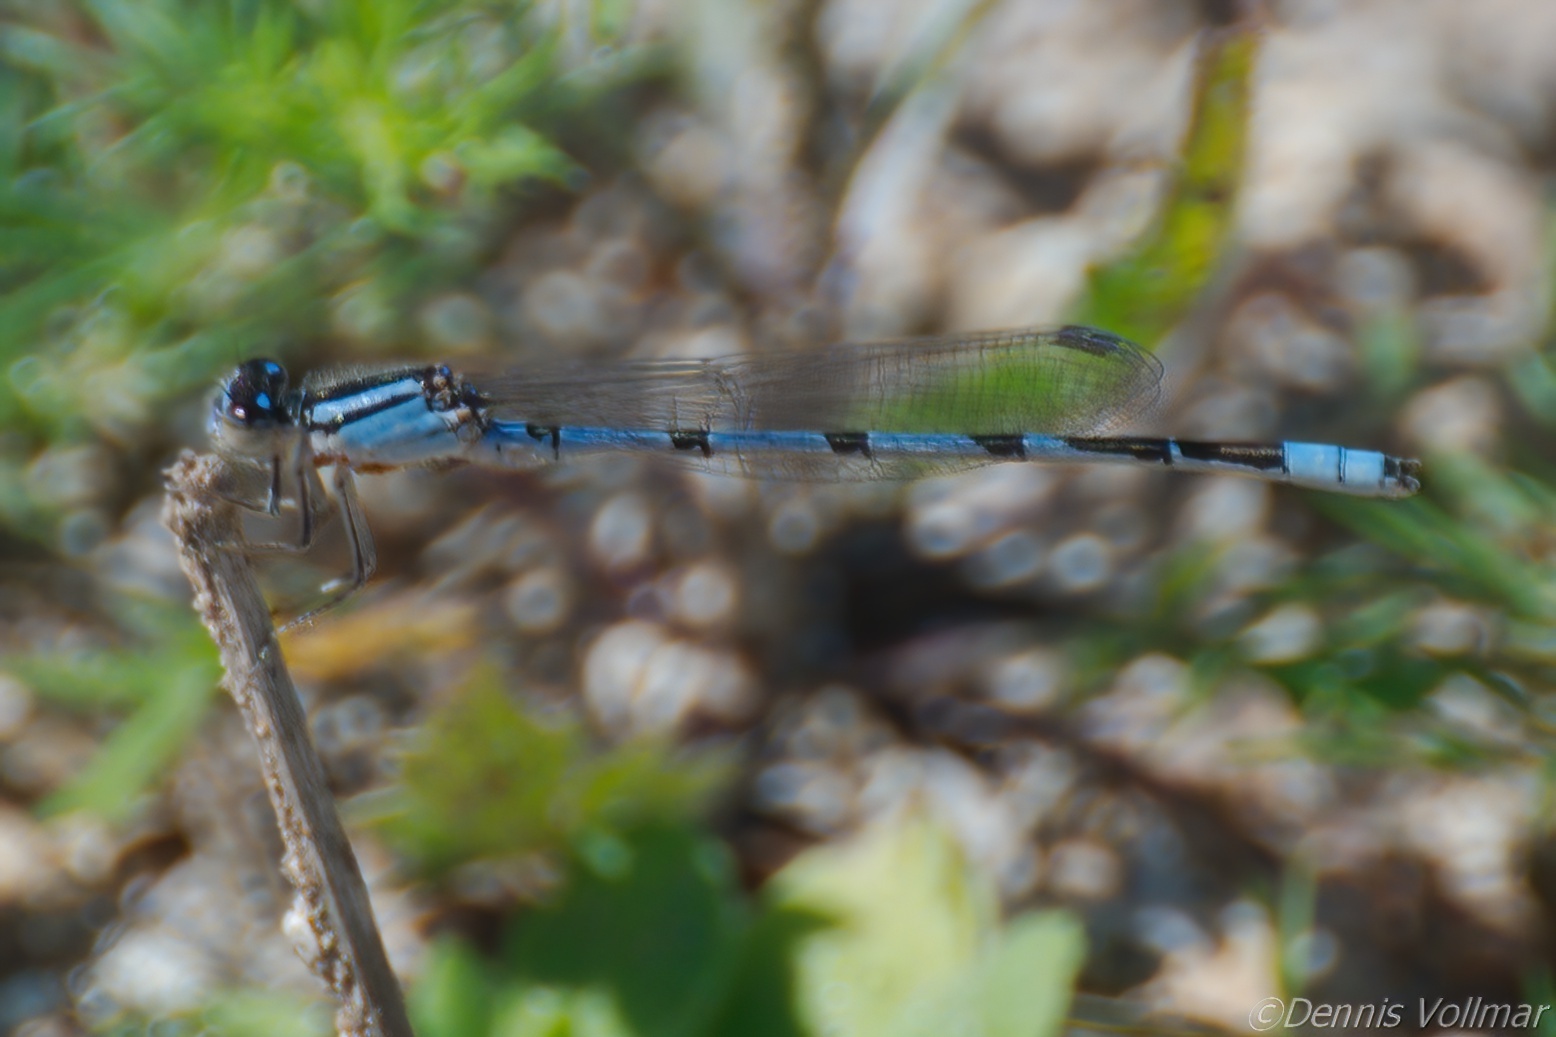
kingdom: Animalia
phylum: Arthropoda
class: Insecta
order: Odonata
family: Coenagrionidae
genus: Enallagma
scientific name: Enallagma civile
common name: Damselfly
